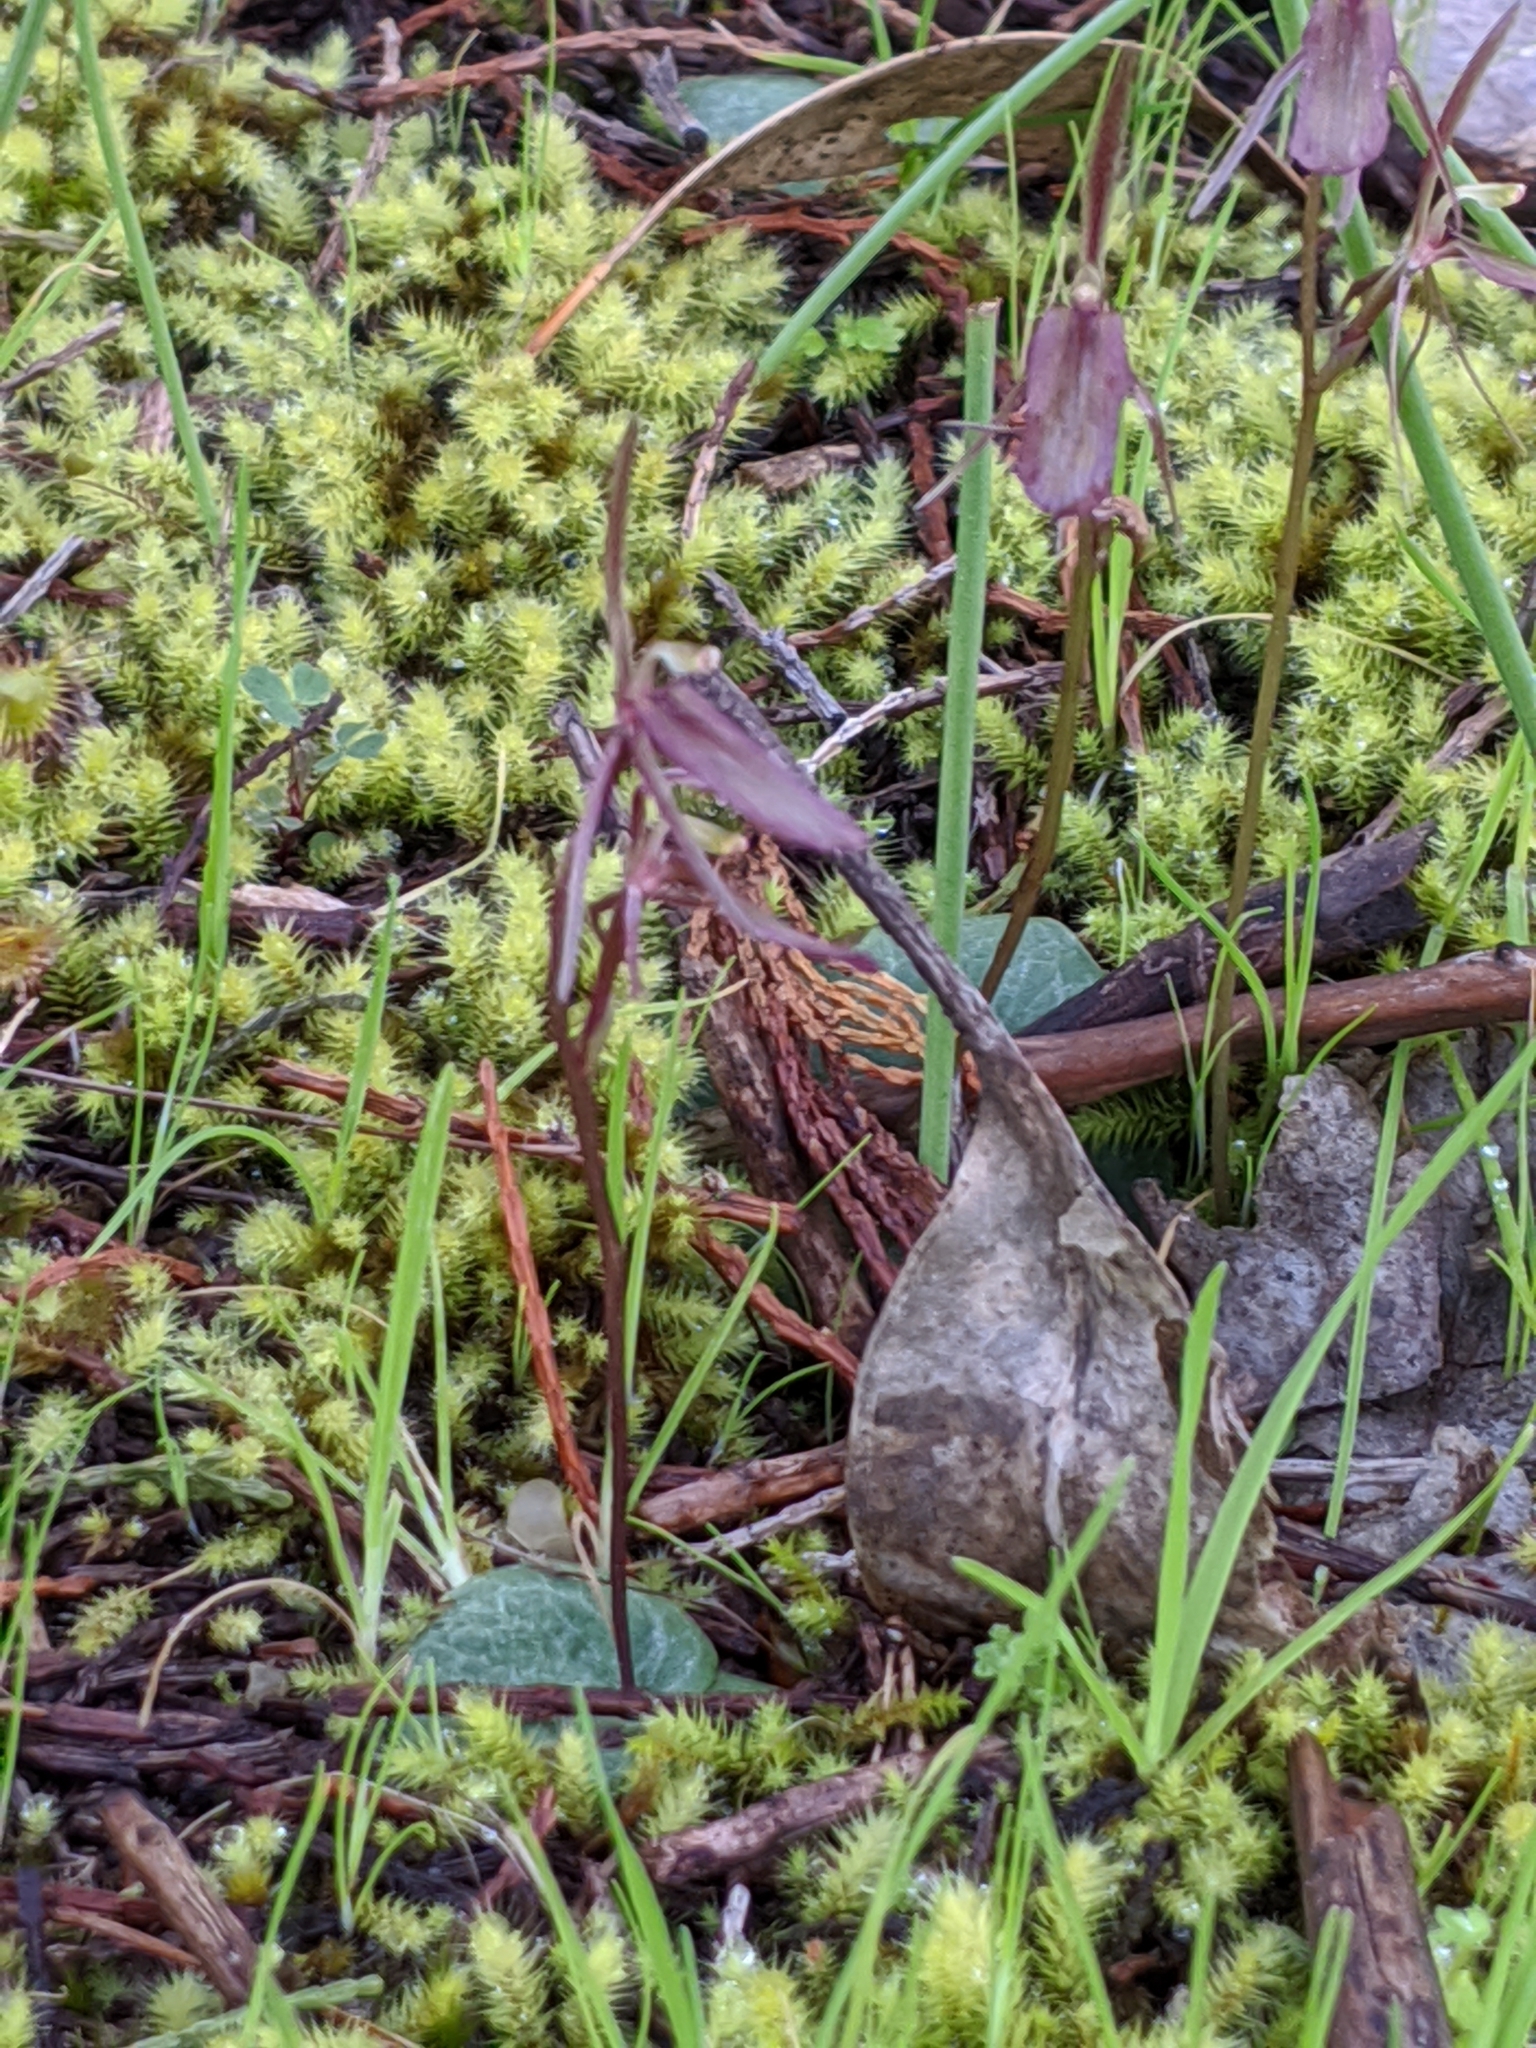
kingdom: Plantae
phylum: Tracheophyta
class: Liliopsida
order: Asparagales
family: Orchidaceae
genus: Cyrtostylis
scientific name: Cyrtostylis reniformis
